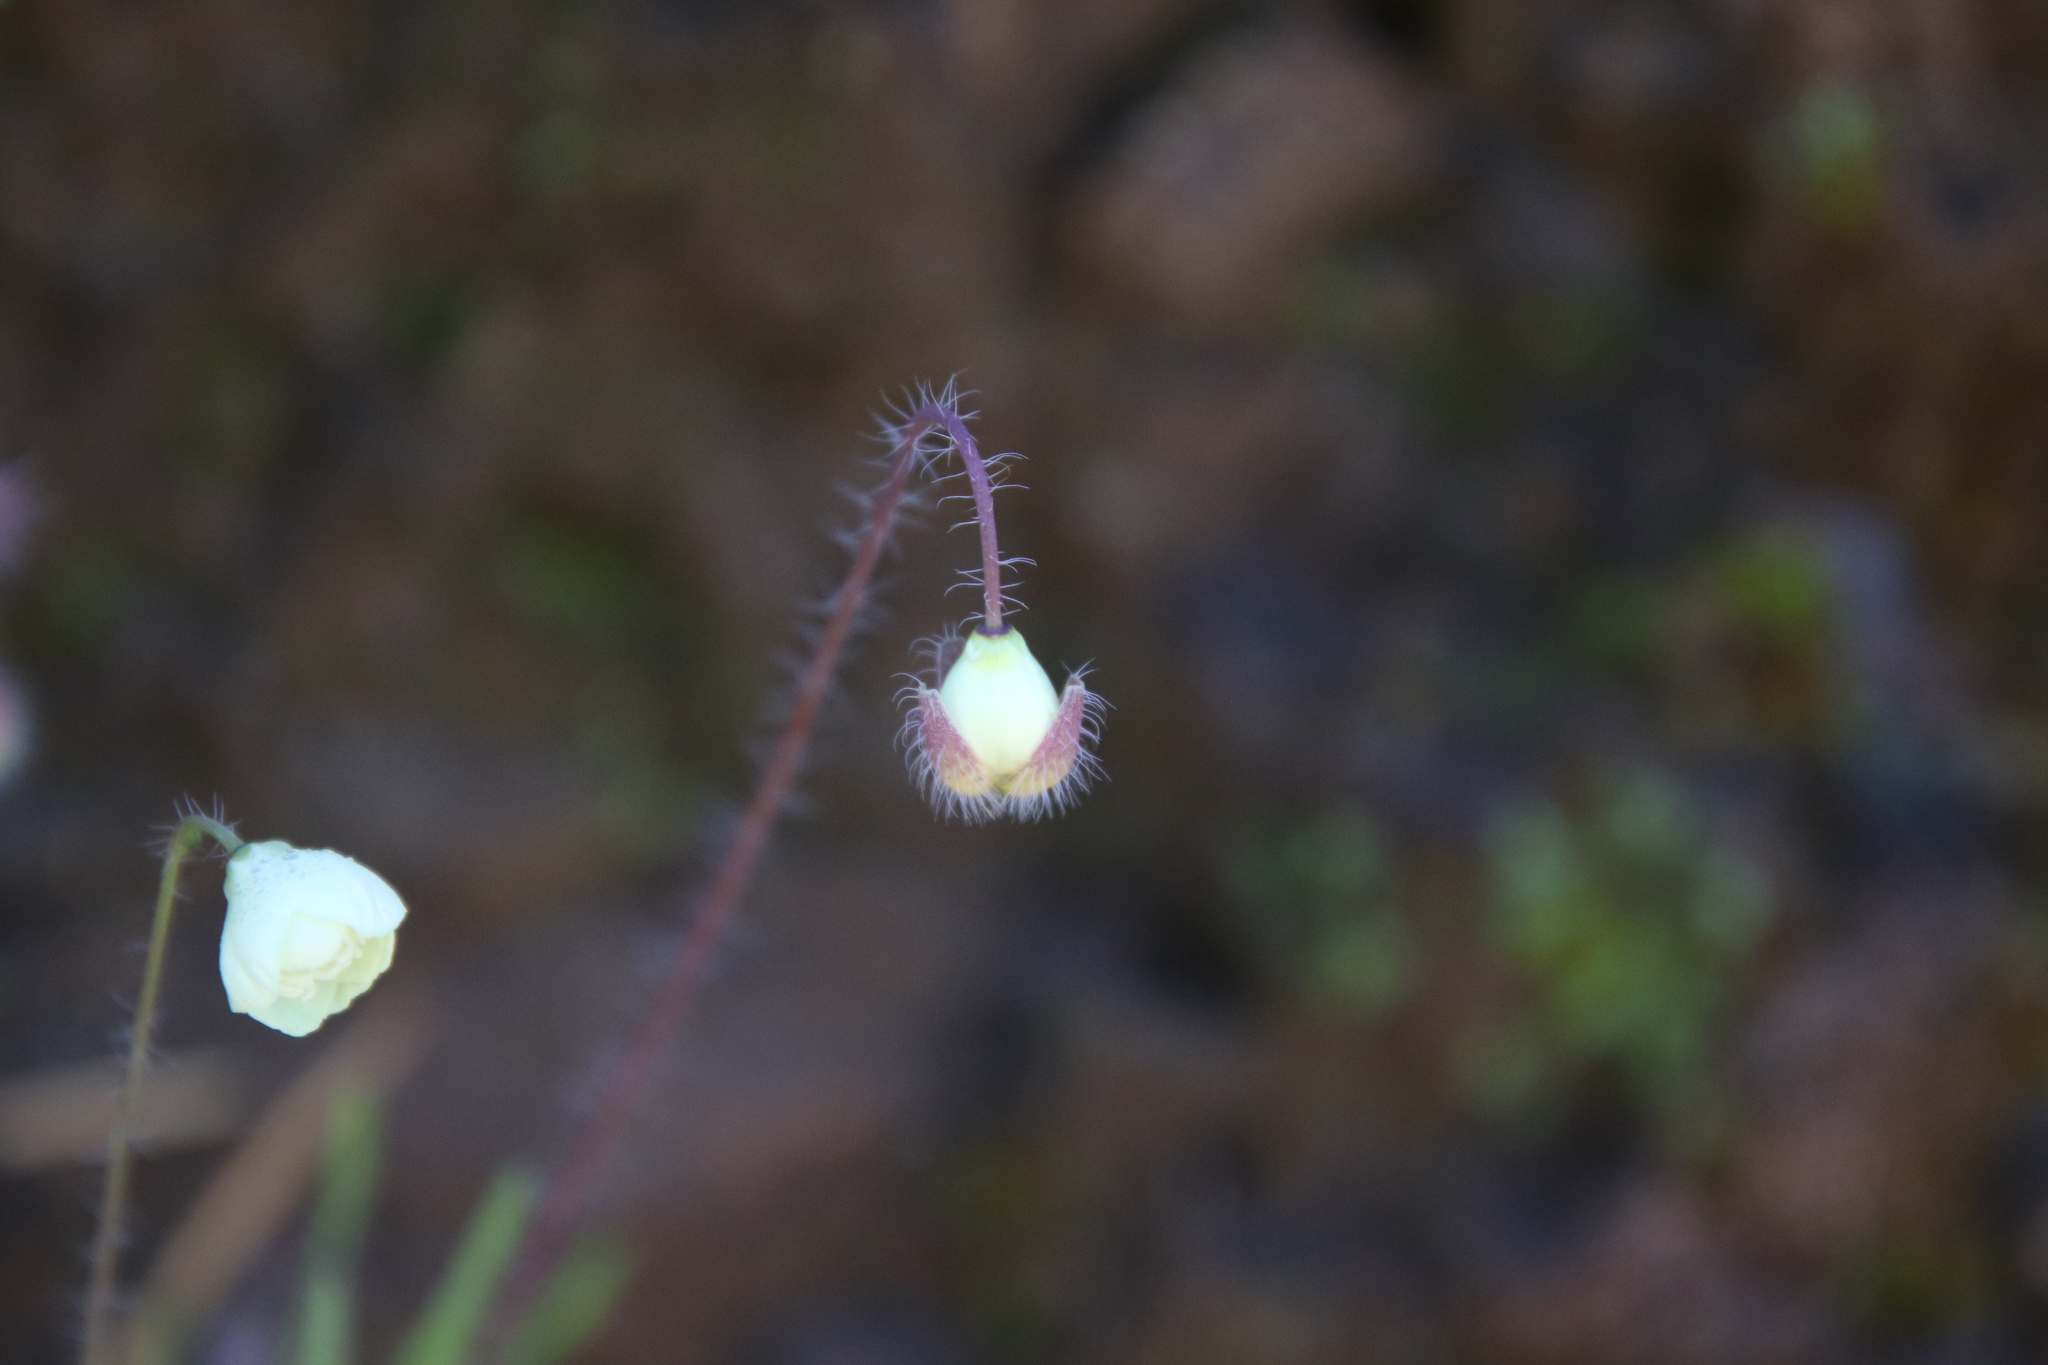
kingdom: Plantae
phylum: Tracheophyta
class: Magnoliopsida
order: Ranunculales
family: Papaveraceae
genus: Platystemon
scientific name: Platystemon californicus
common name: Cream-cups
